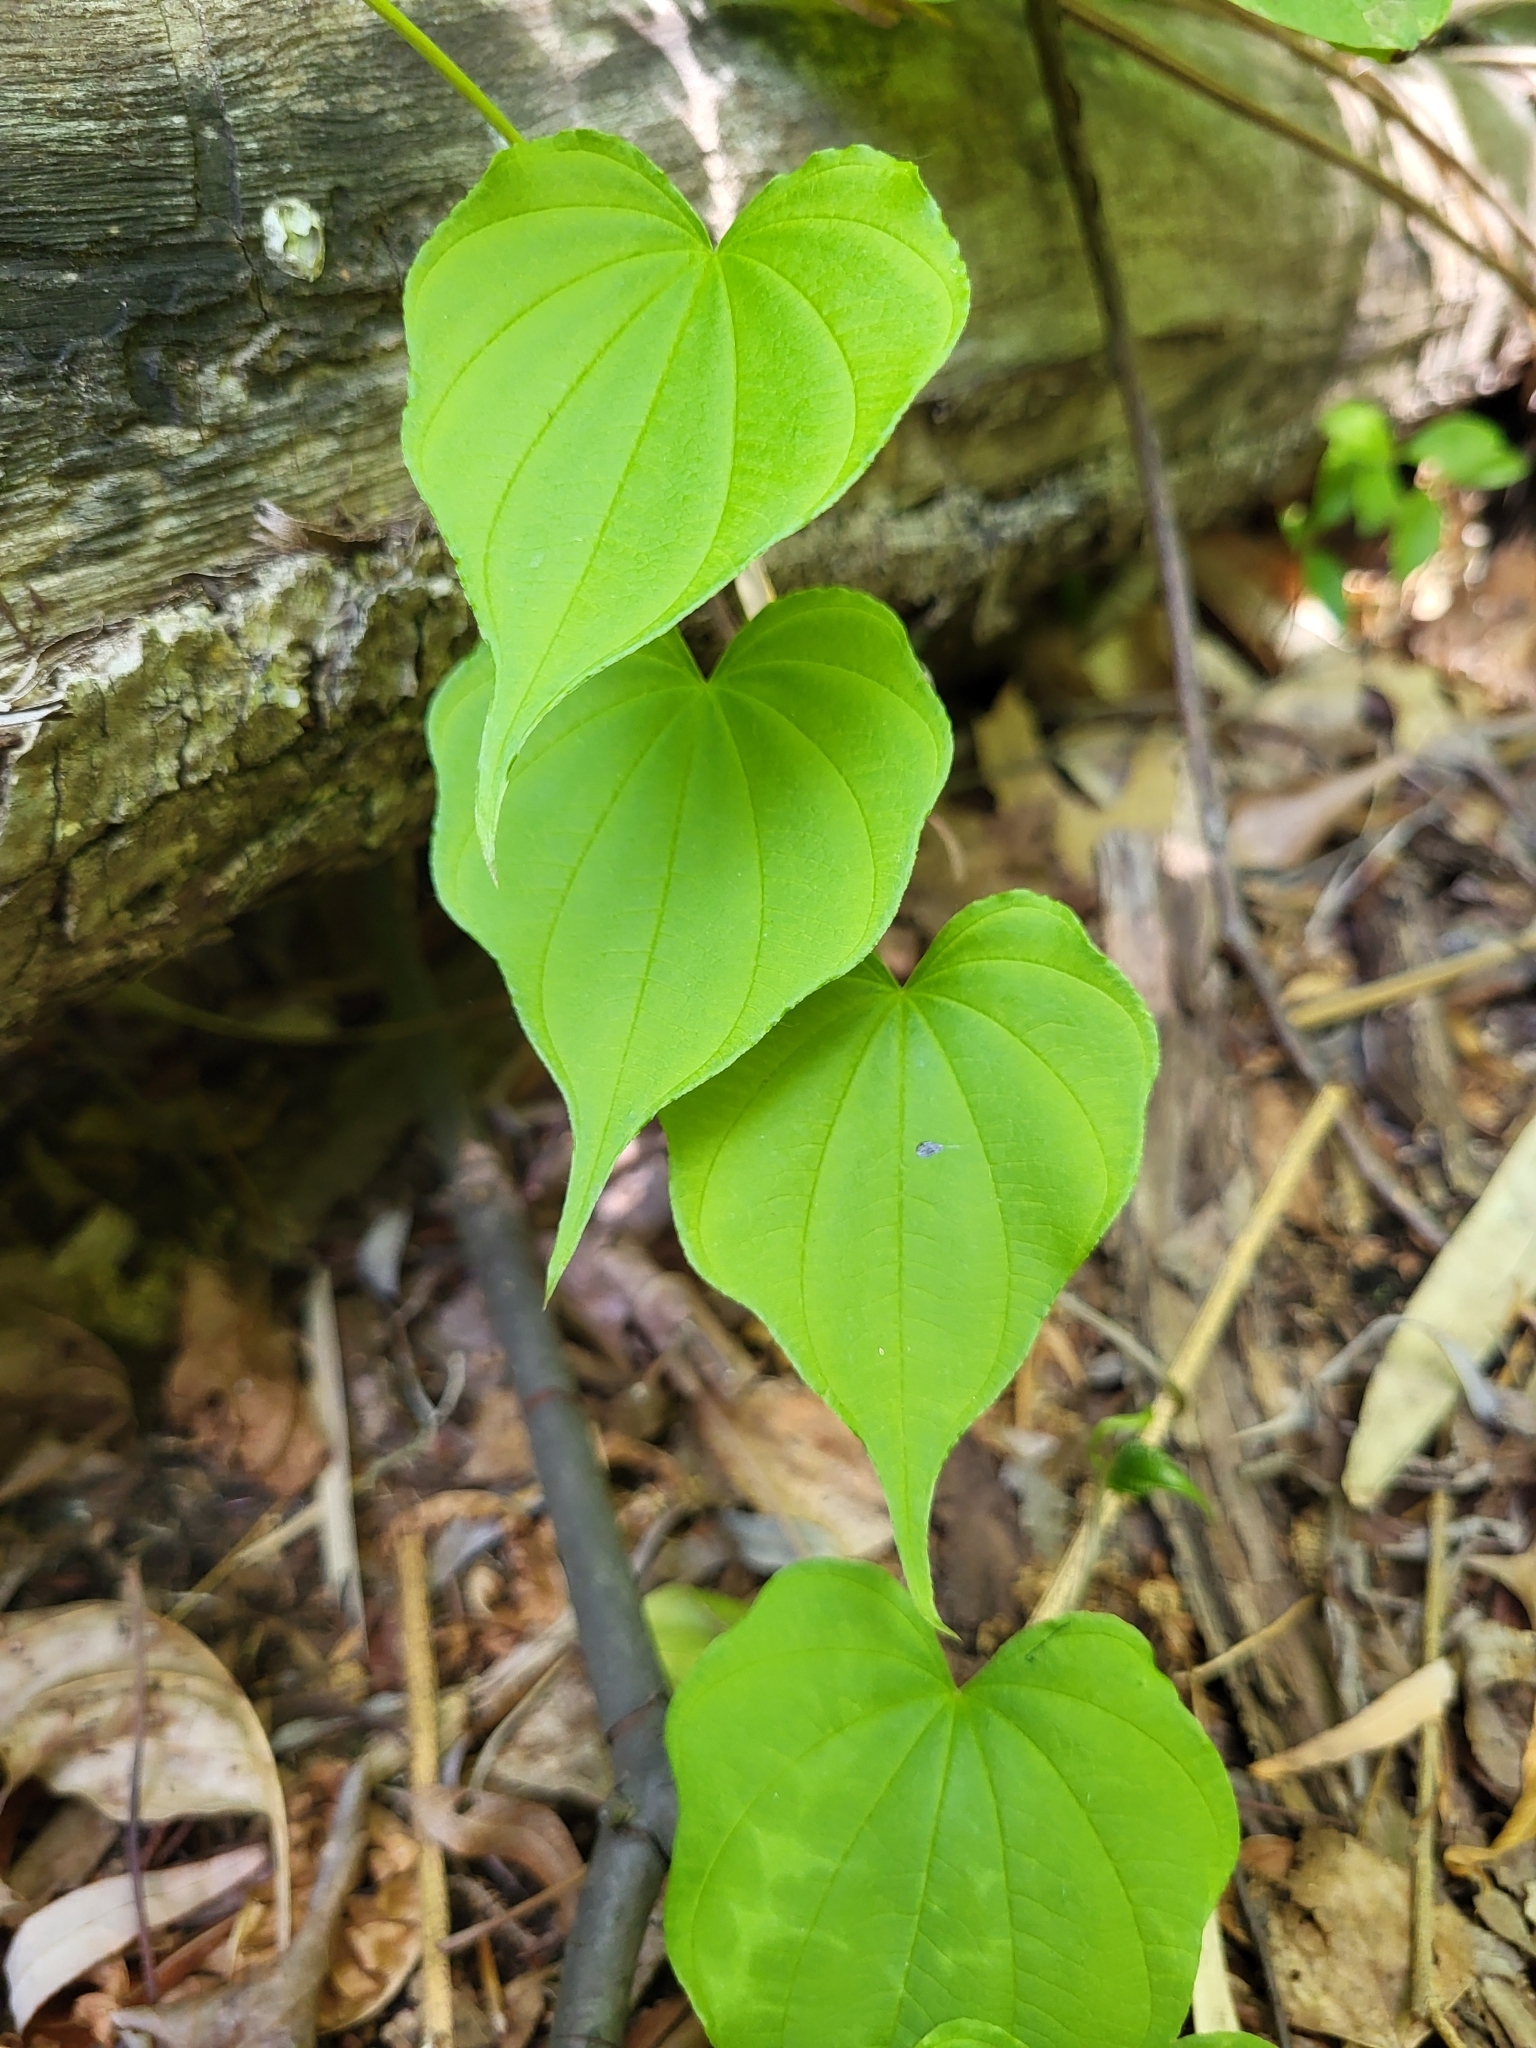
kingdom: Plantae
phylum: Tracheophyta
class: Liliopsida
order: Dioscoreales
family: Dioscoreaceae
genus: Dioscorea
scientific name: Dioscorea villosa
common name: Wild yam
